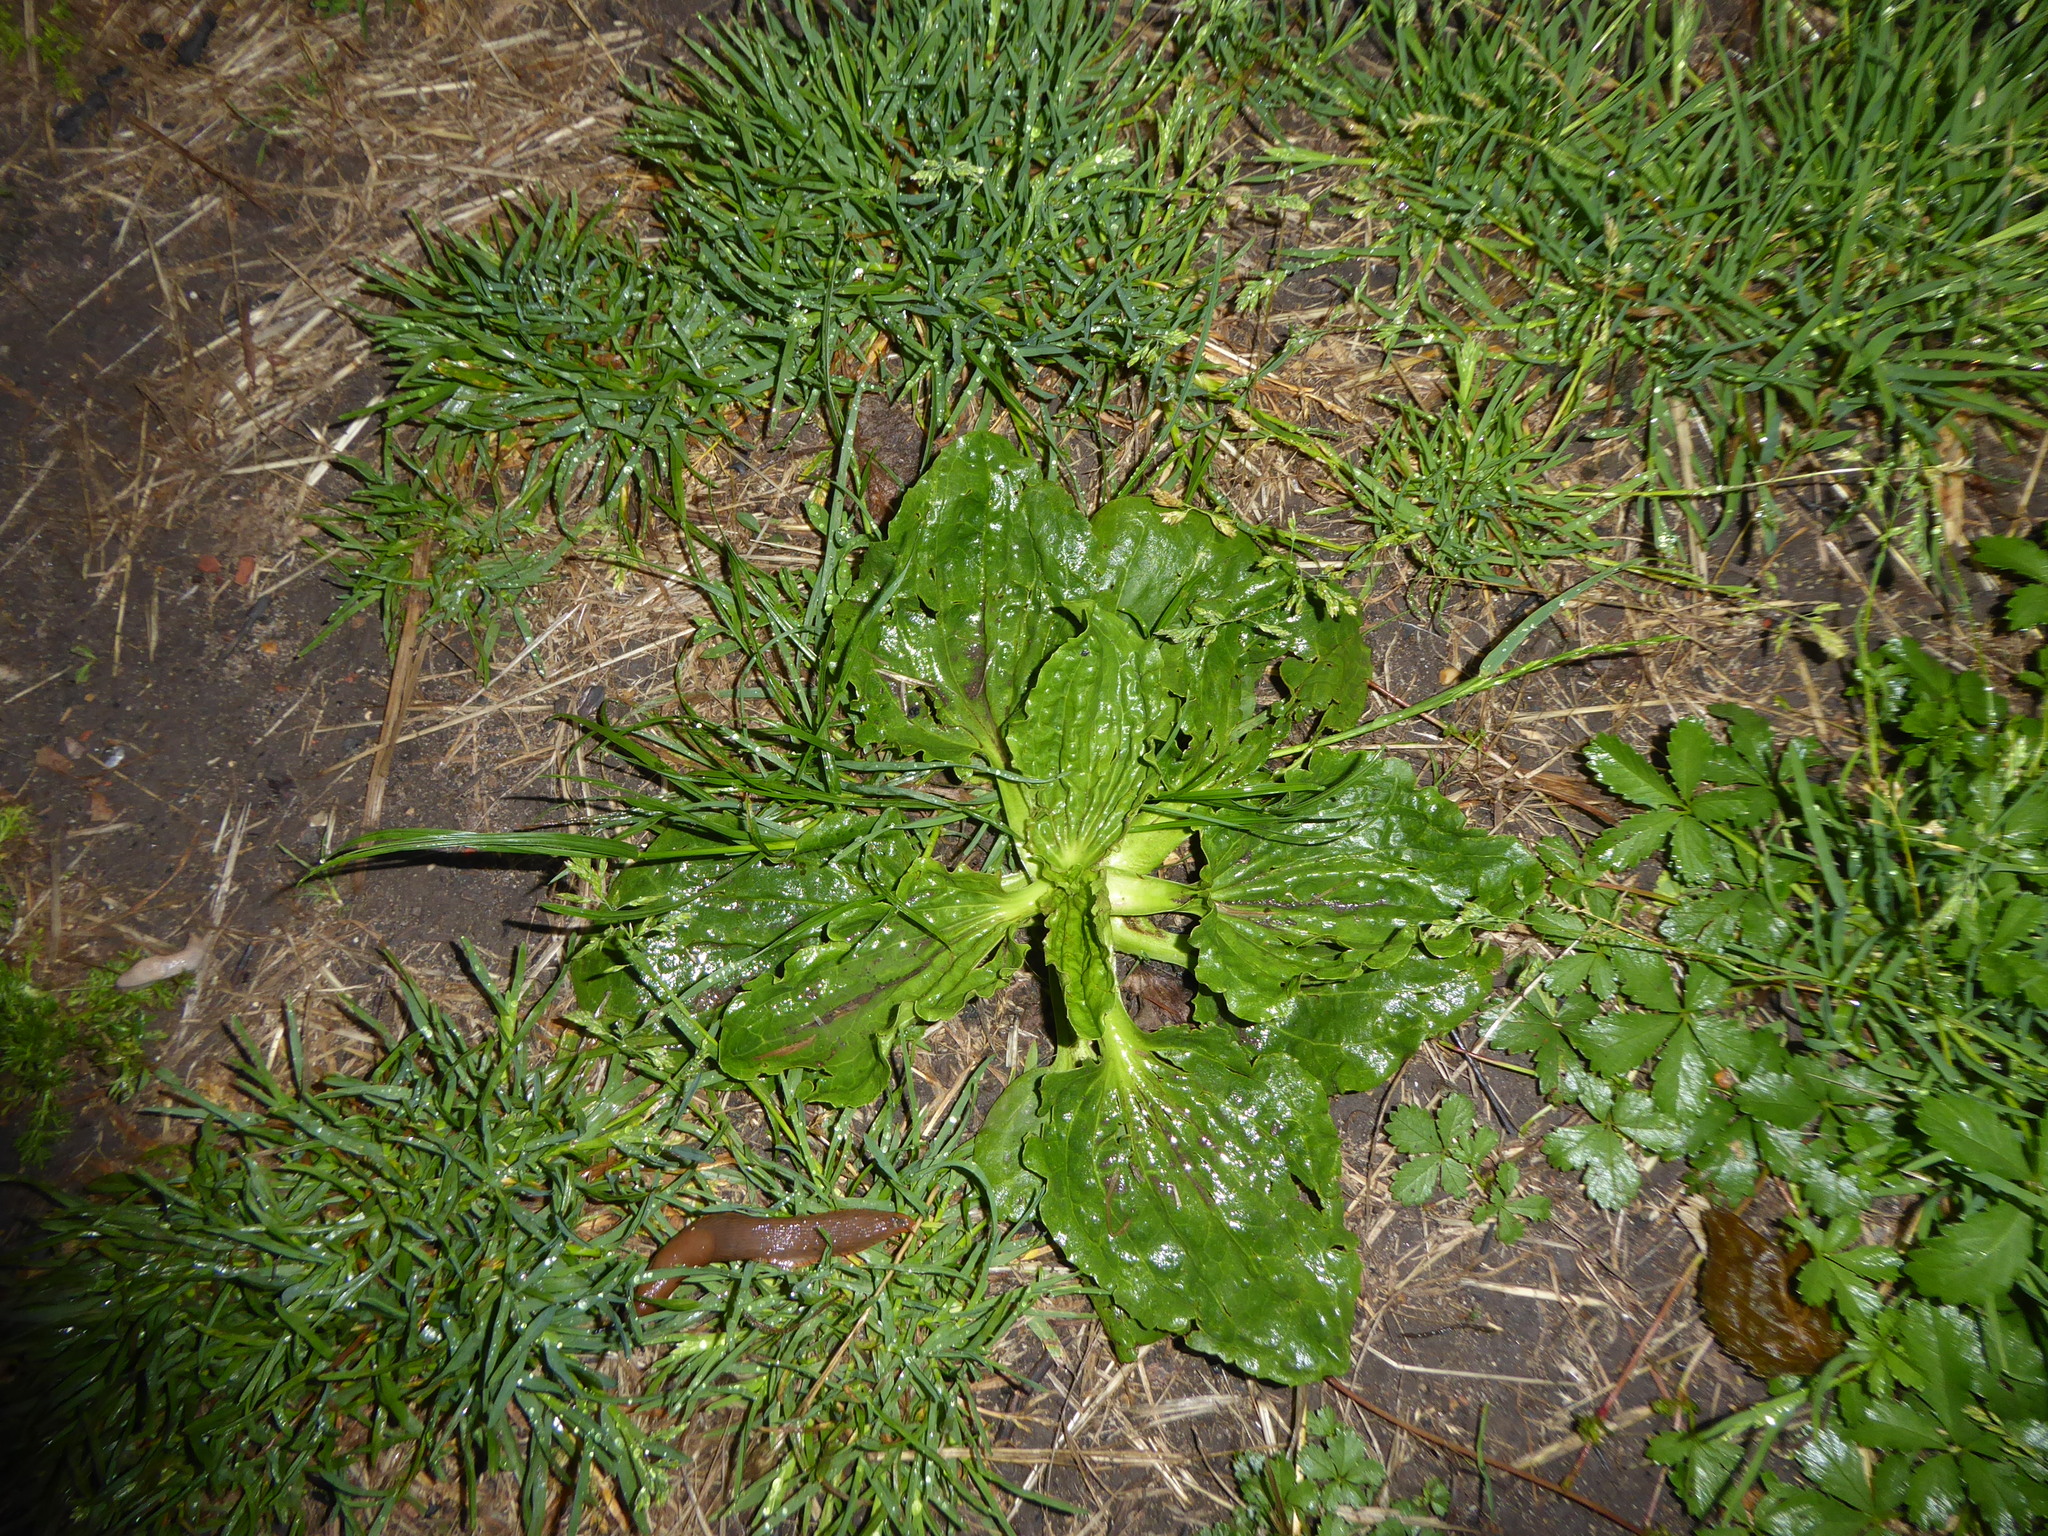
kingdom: Plantae
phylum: Tracheophyta
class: Magnoliopsida
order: Lamiales
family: Plantaginaceae
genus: Plantago
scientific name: Plantago major
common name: Common plantain
